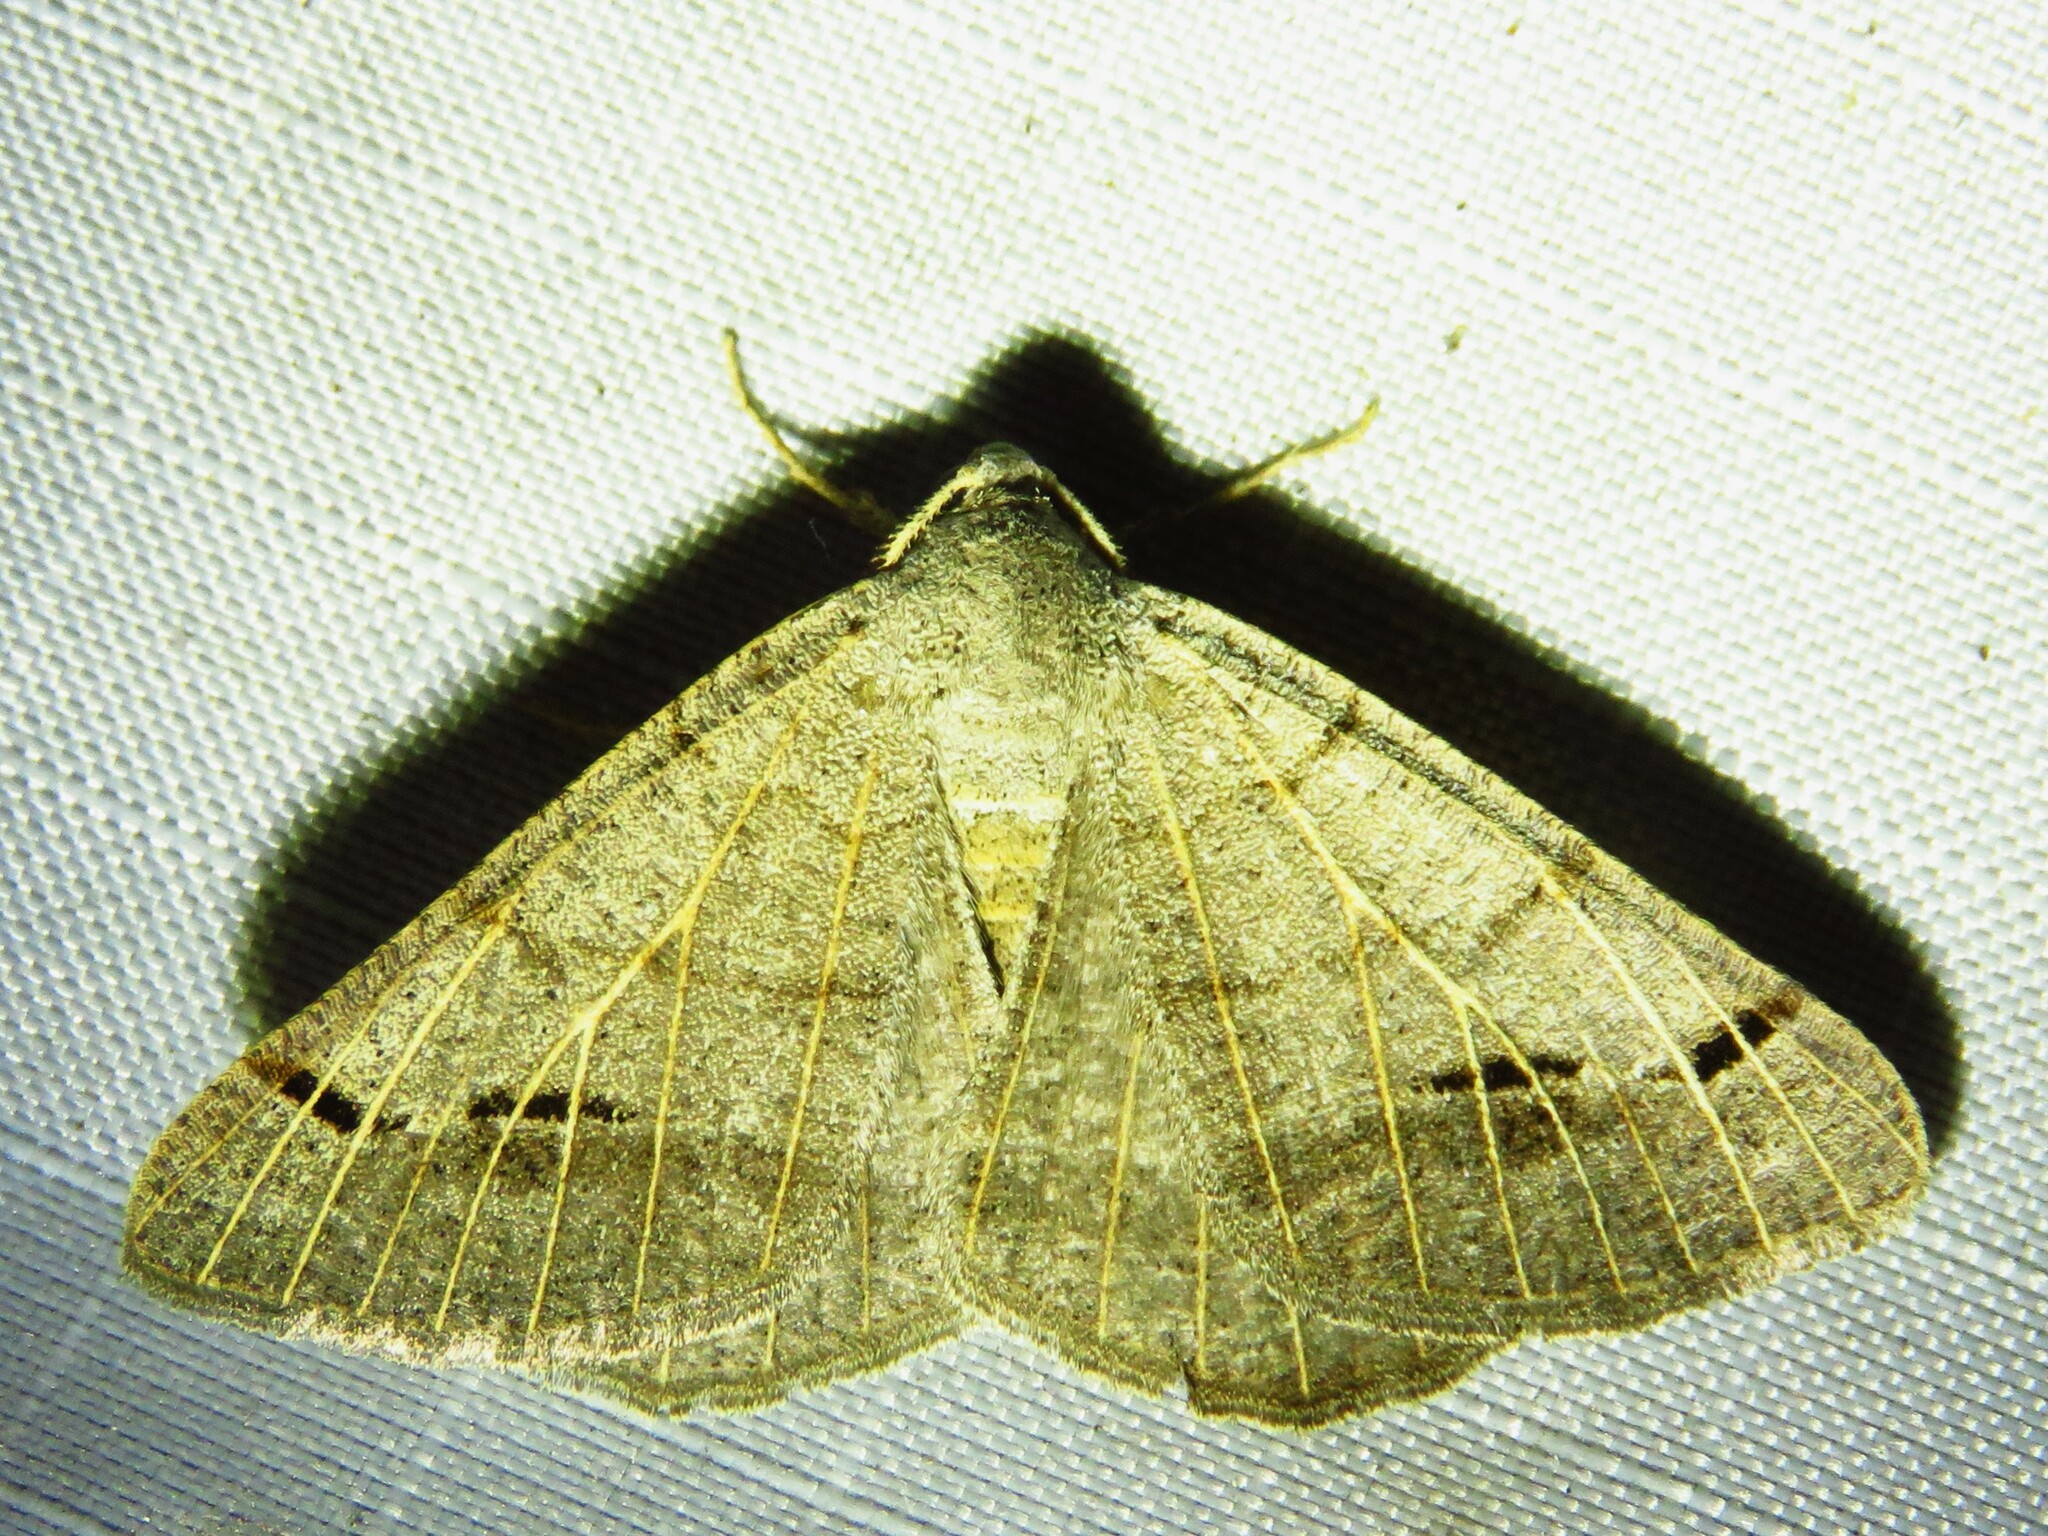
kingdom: Animalia
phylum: Arthropoda
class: Insecta
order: Lepidoptera
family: Geometridae
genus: Isturgia
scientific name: Isturgia dislocaria
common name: Pale-viened enconista
